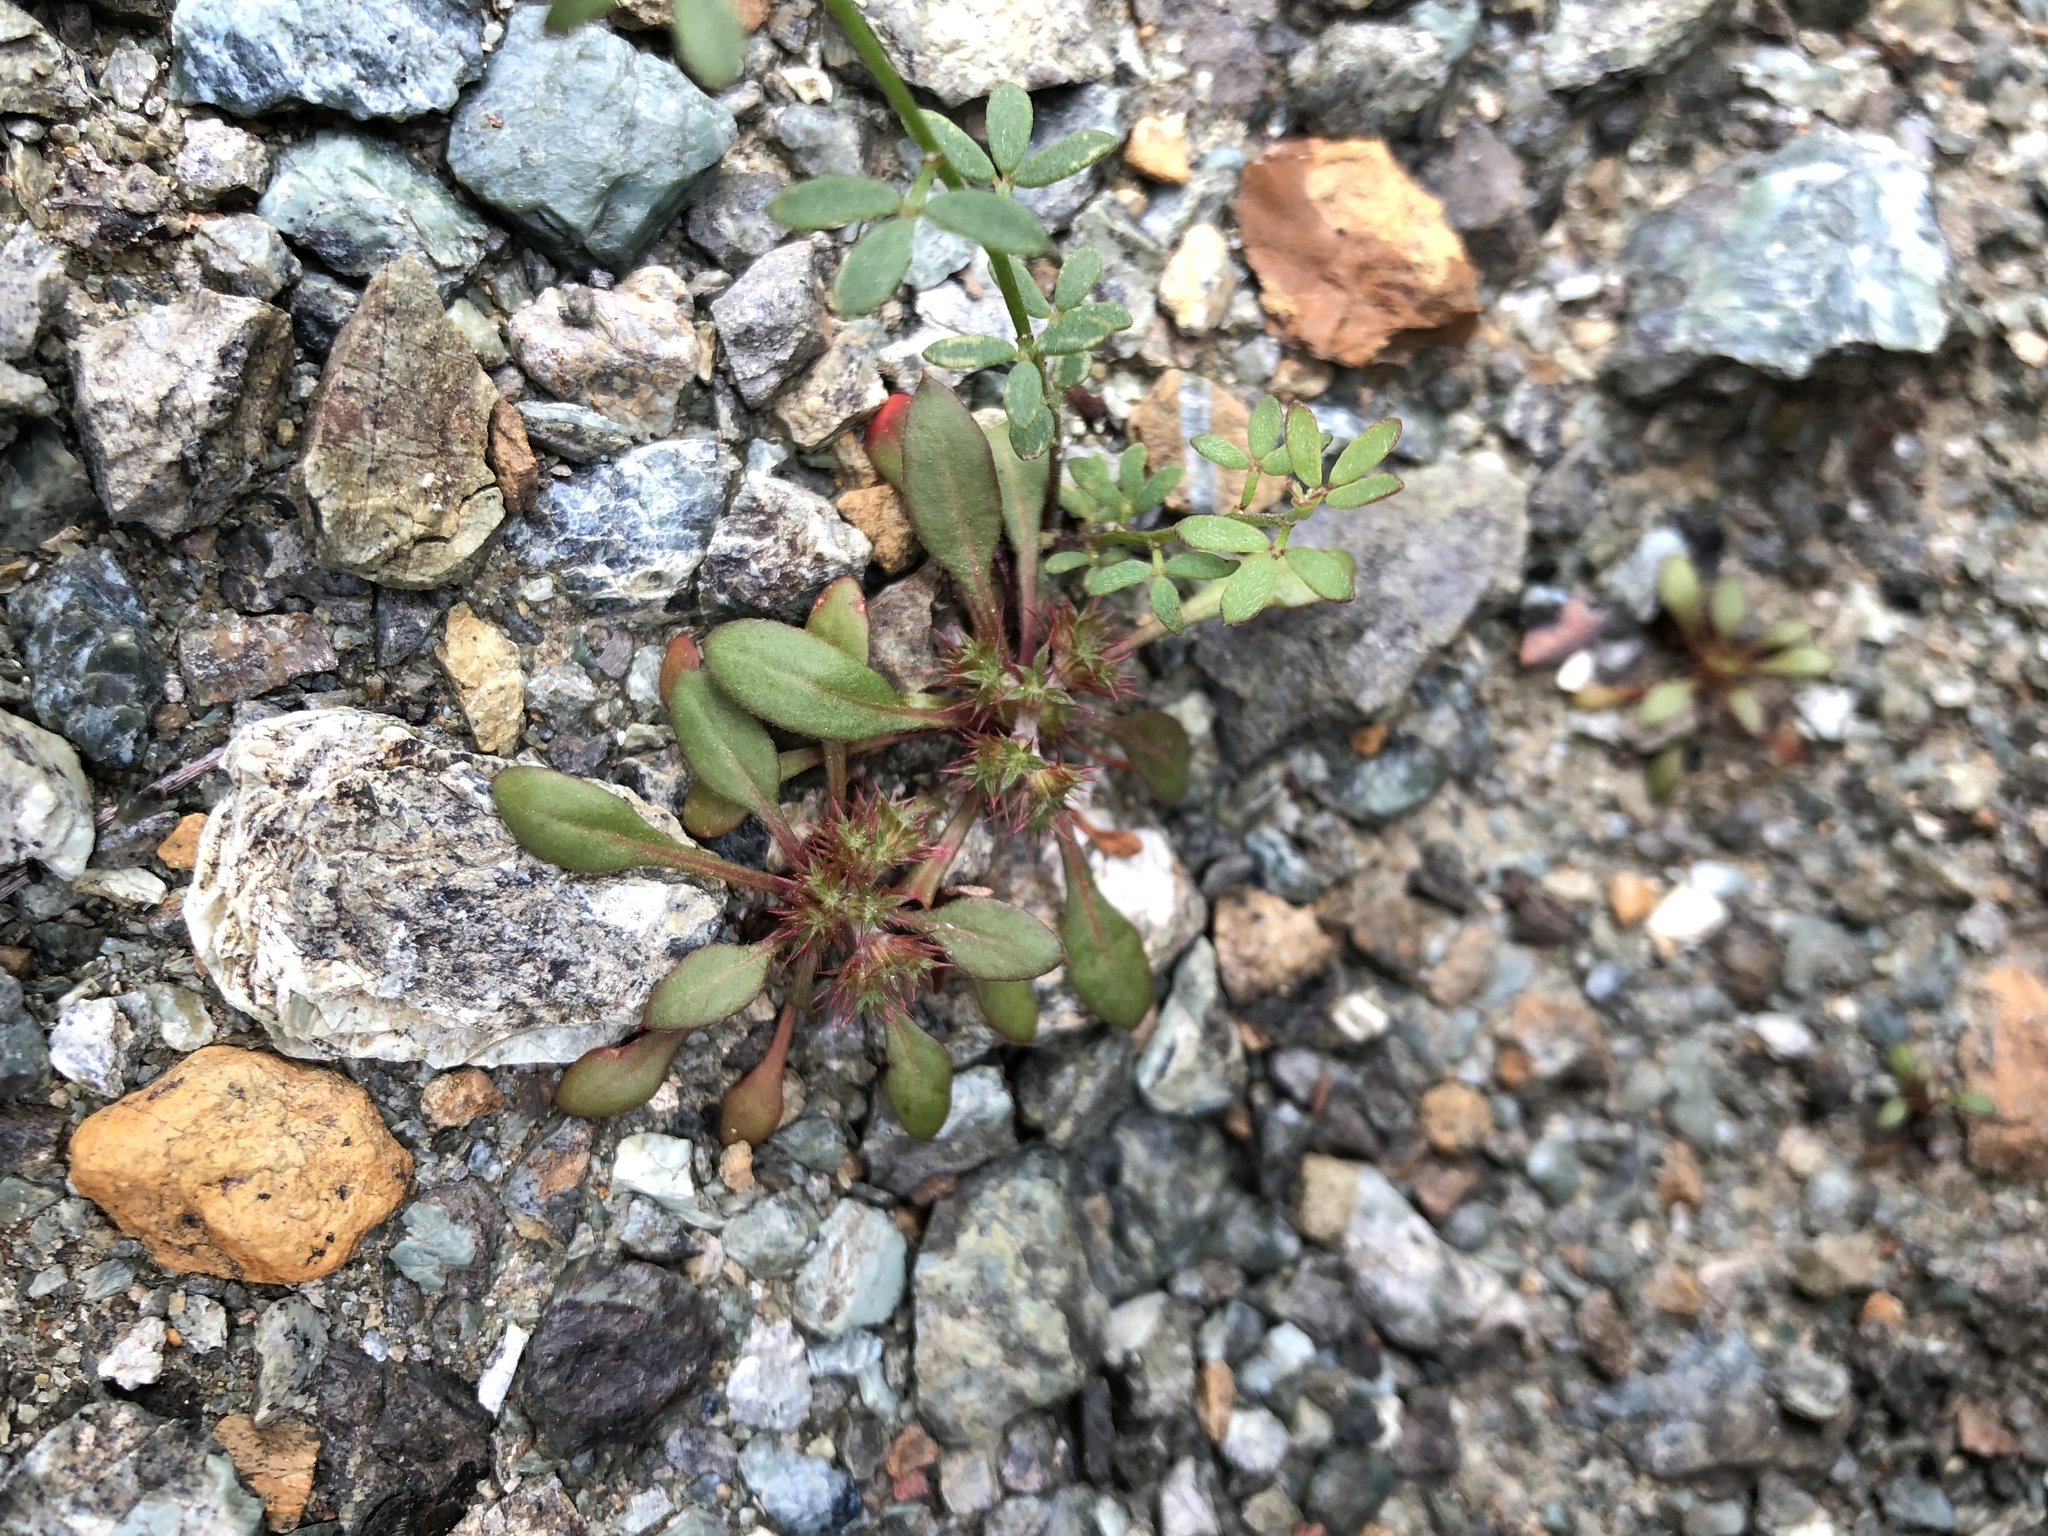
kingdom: Plantae
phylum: Tracheophyta
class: Magnoliopsida
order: Caryophyllales
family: Polygonaceae
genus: Chorizanthe
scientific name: Chorizanthe aphanantha
